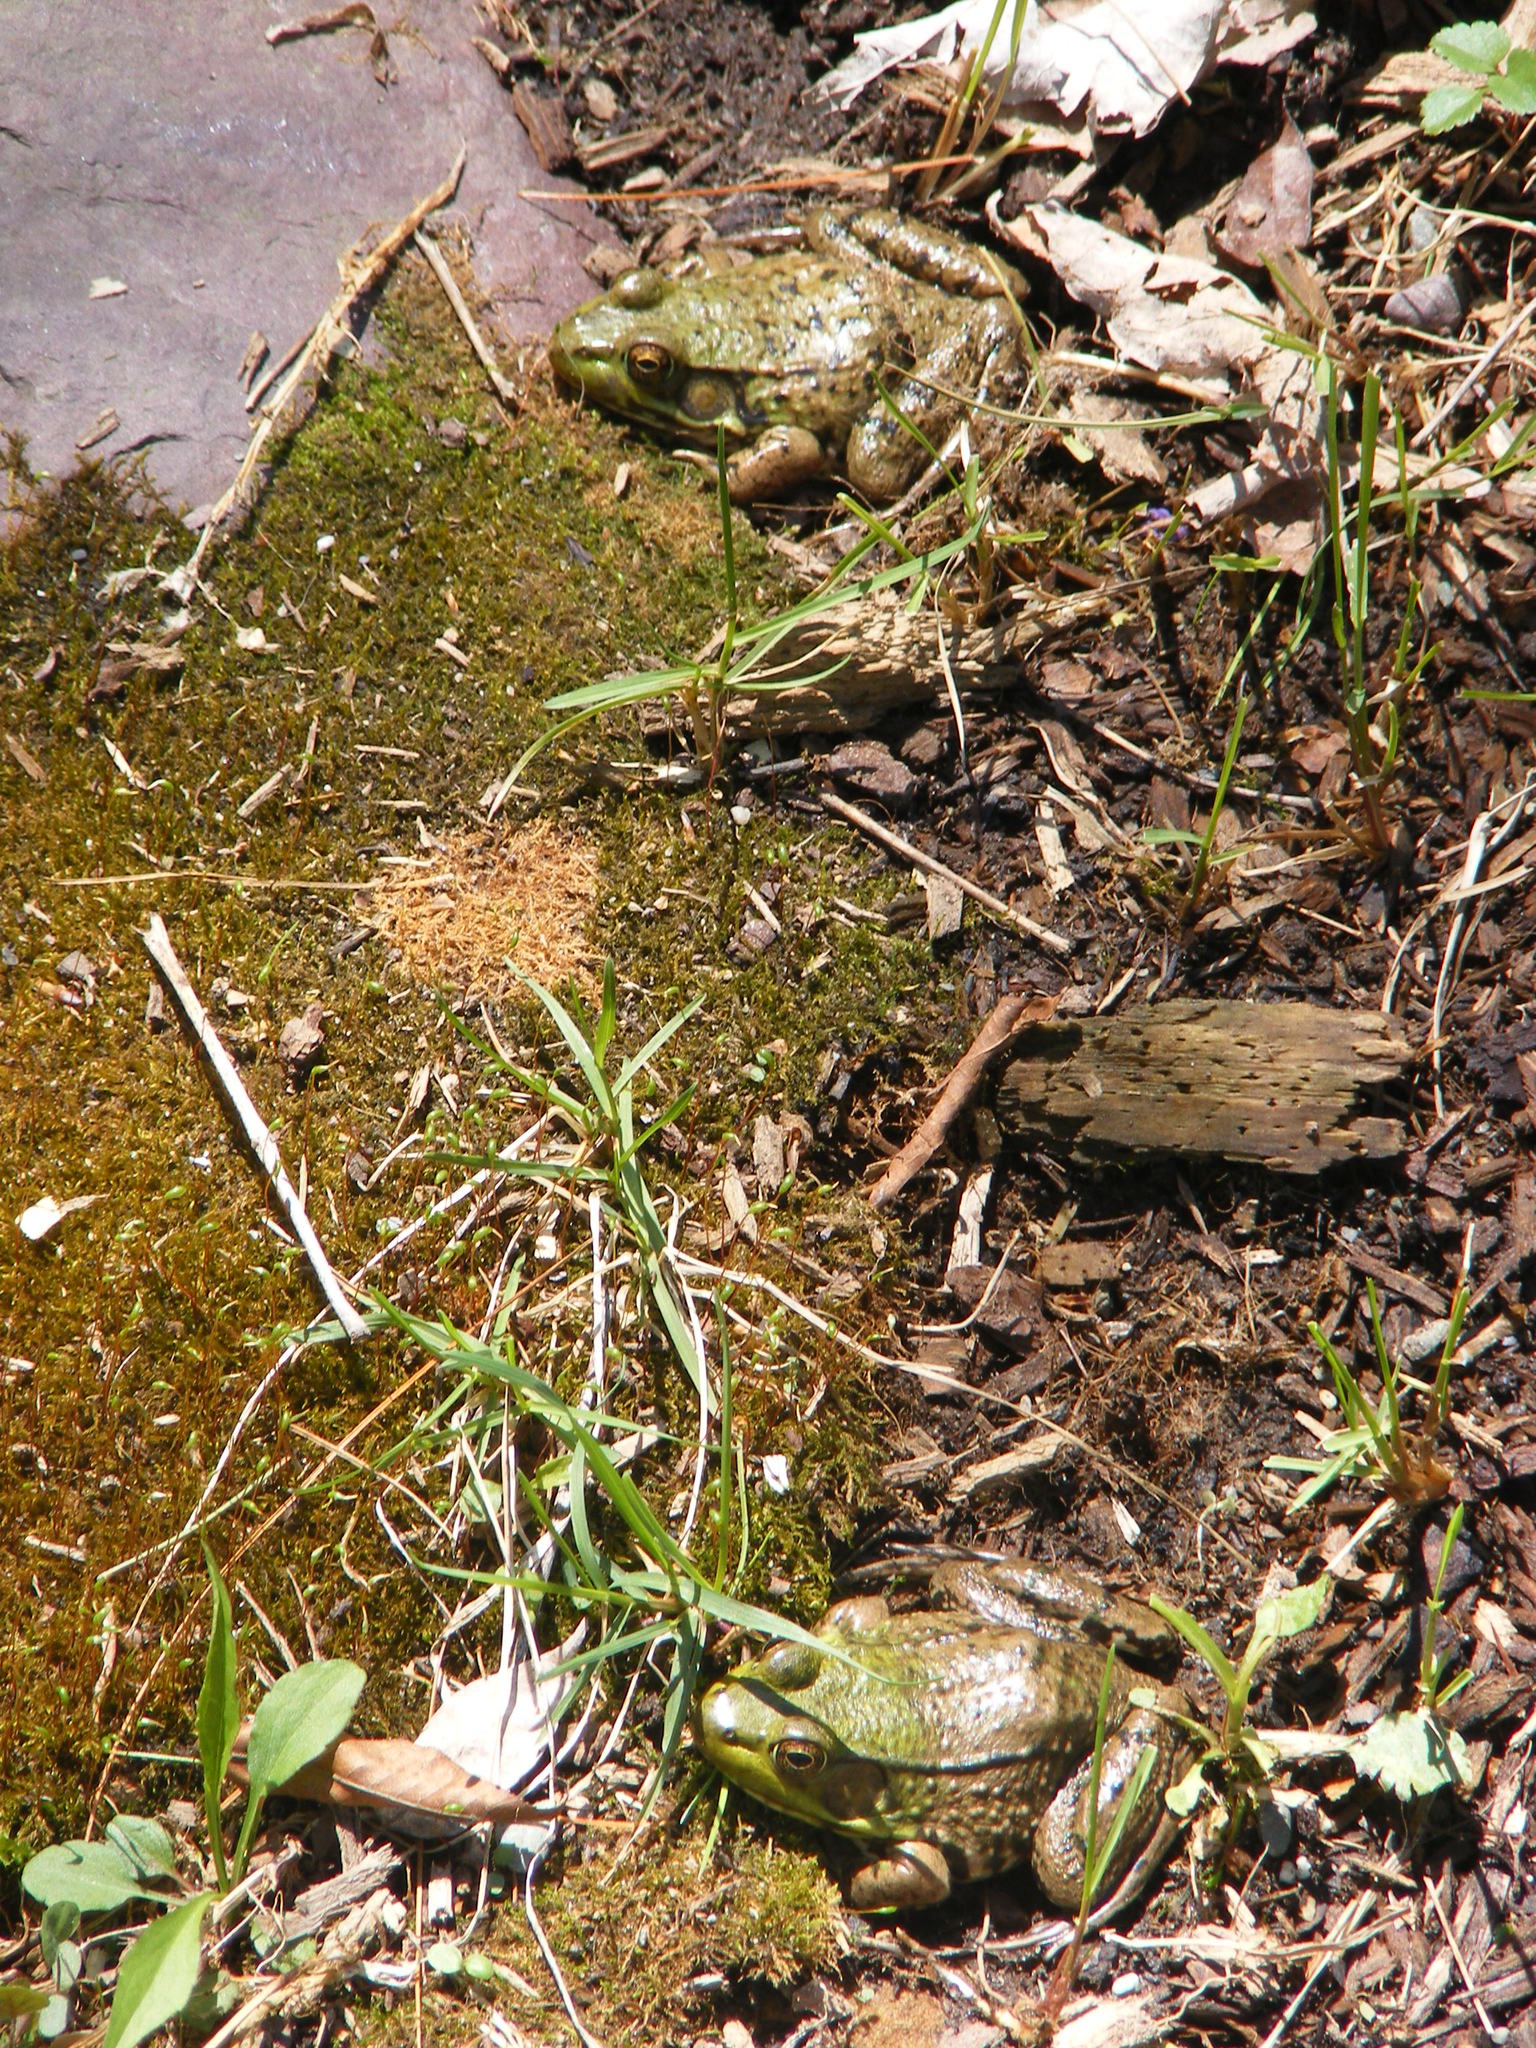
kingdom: Animalia
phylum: Chordata
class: Amphibia
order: Anura
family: Ranidae
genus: Lithobates
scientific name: Lithobates clamitans
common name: Green frog
